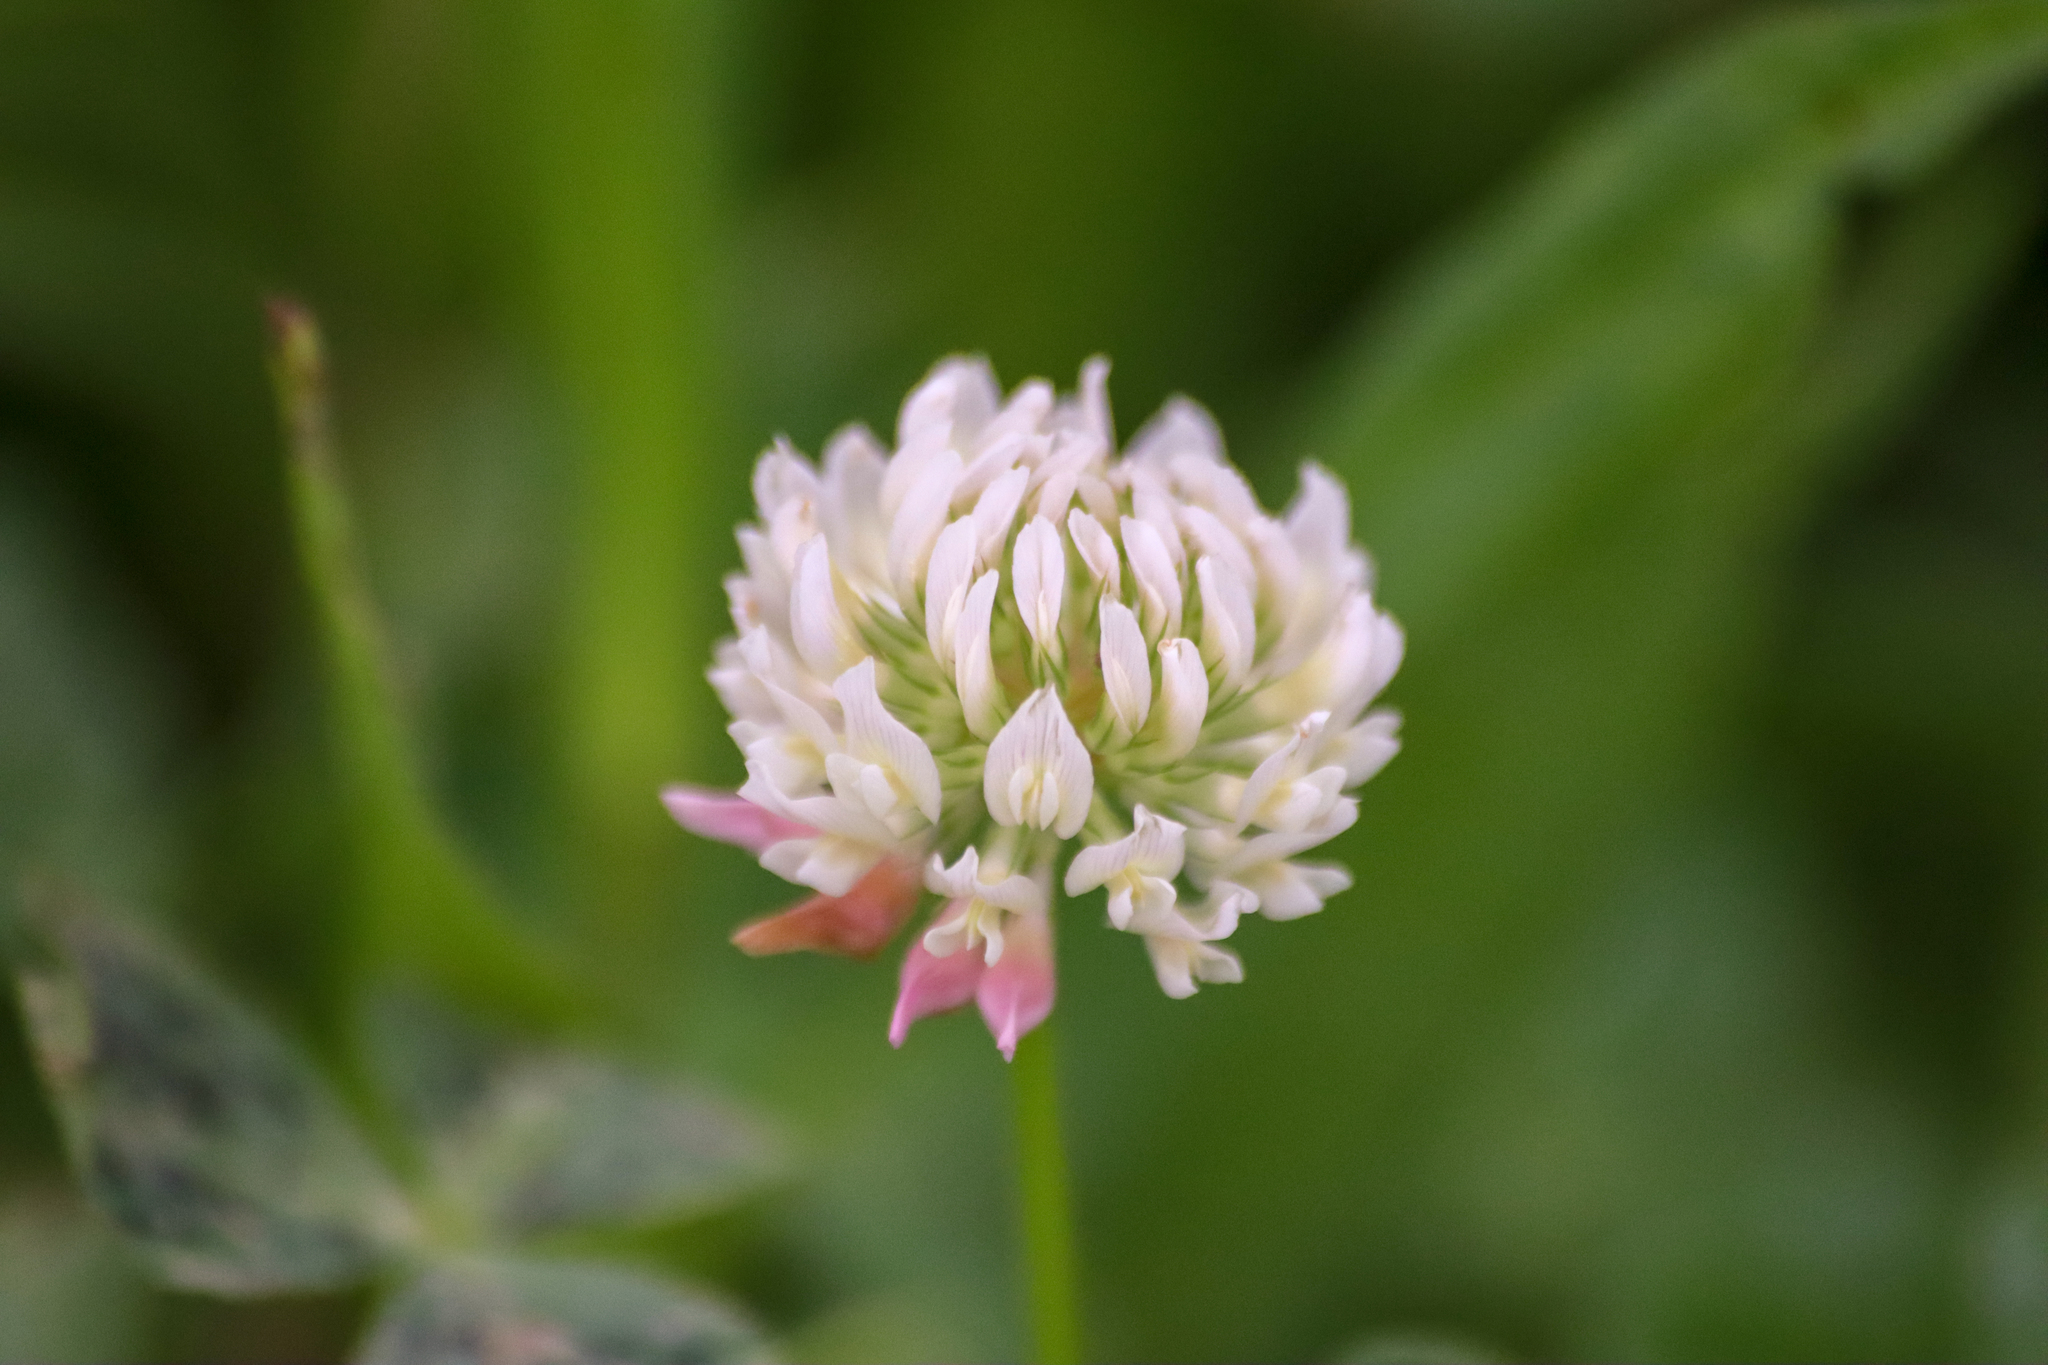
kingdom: Plantae
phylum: Tracheophyta
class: Magnoliopsida
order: Fabales
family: Fabaceae
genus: Trifolium
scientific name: Trifolium hybridum
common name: Alsike clover
